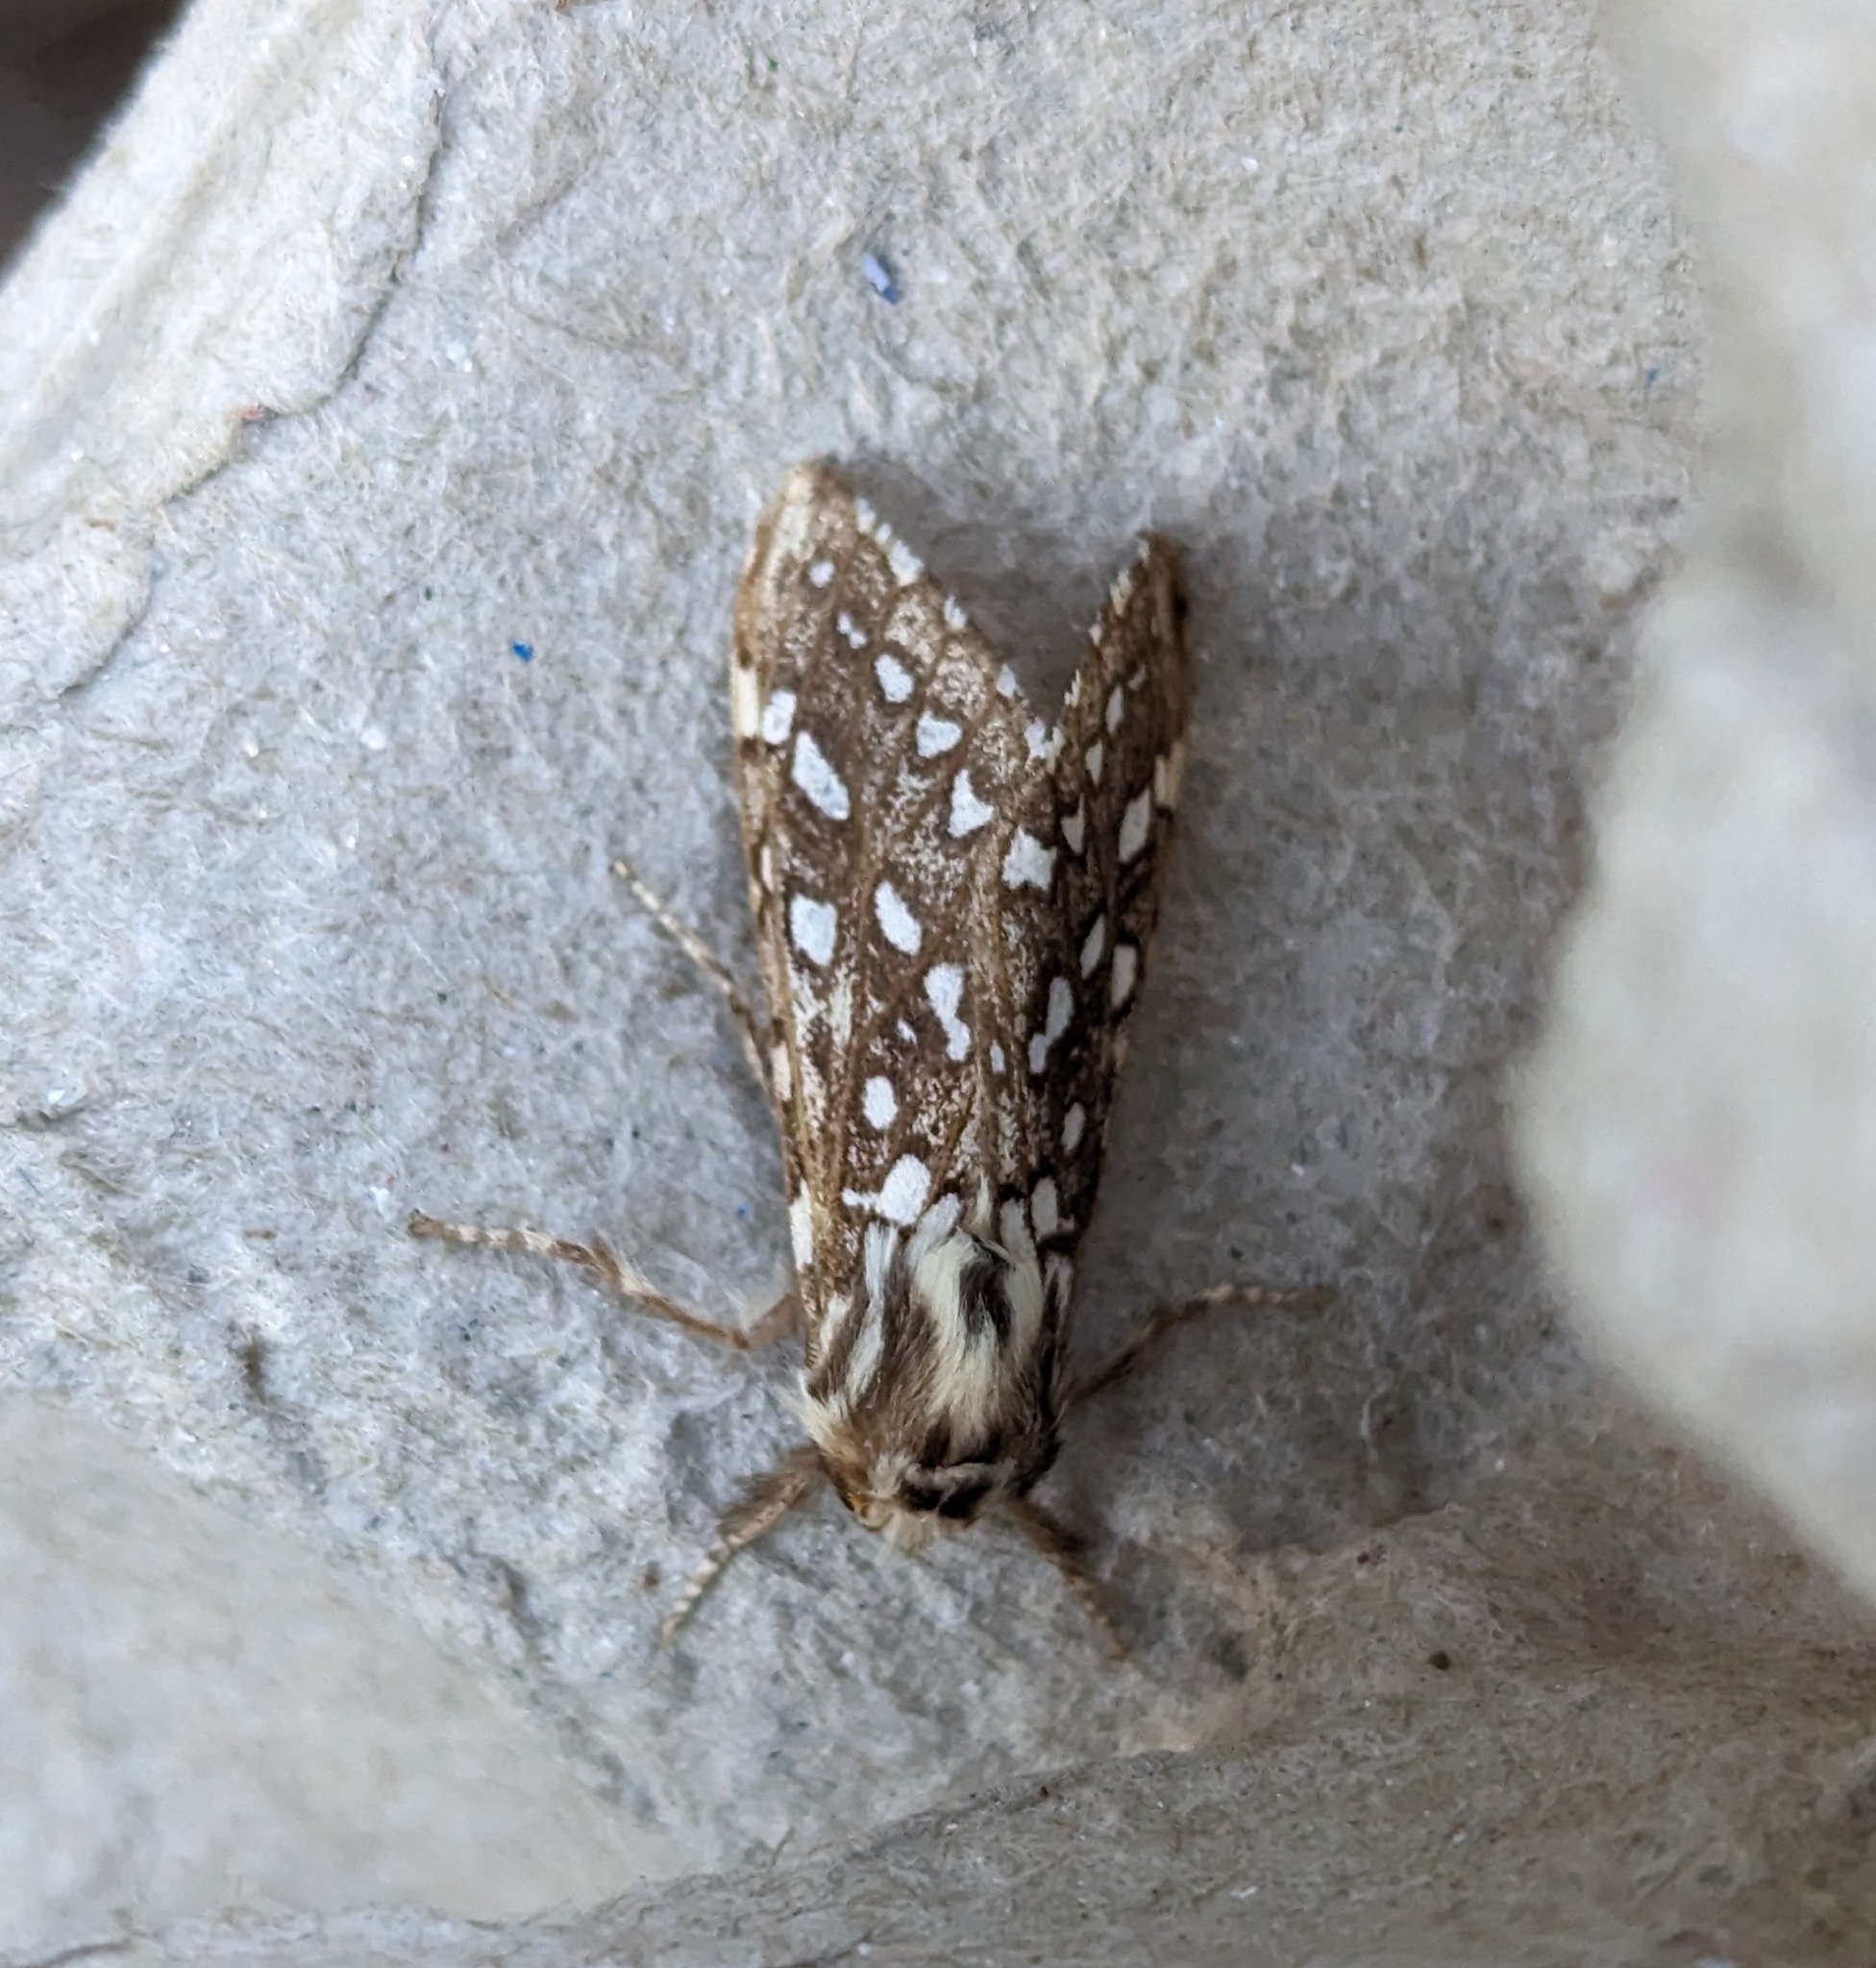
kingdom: Animalia
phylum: Arthropoda
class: Insecta
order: Lepidoptera
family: Erebidae
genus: Lophocampa
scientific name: Lophocampa argentata
